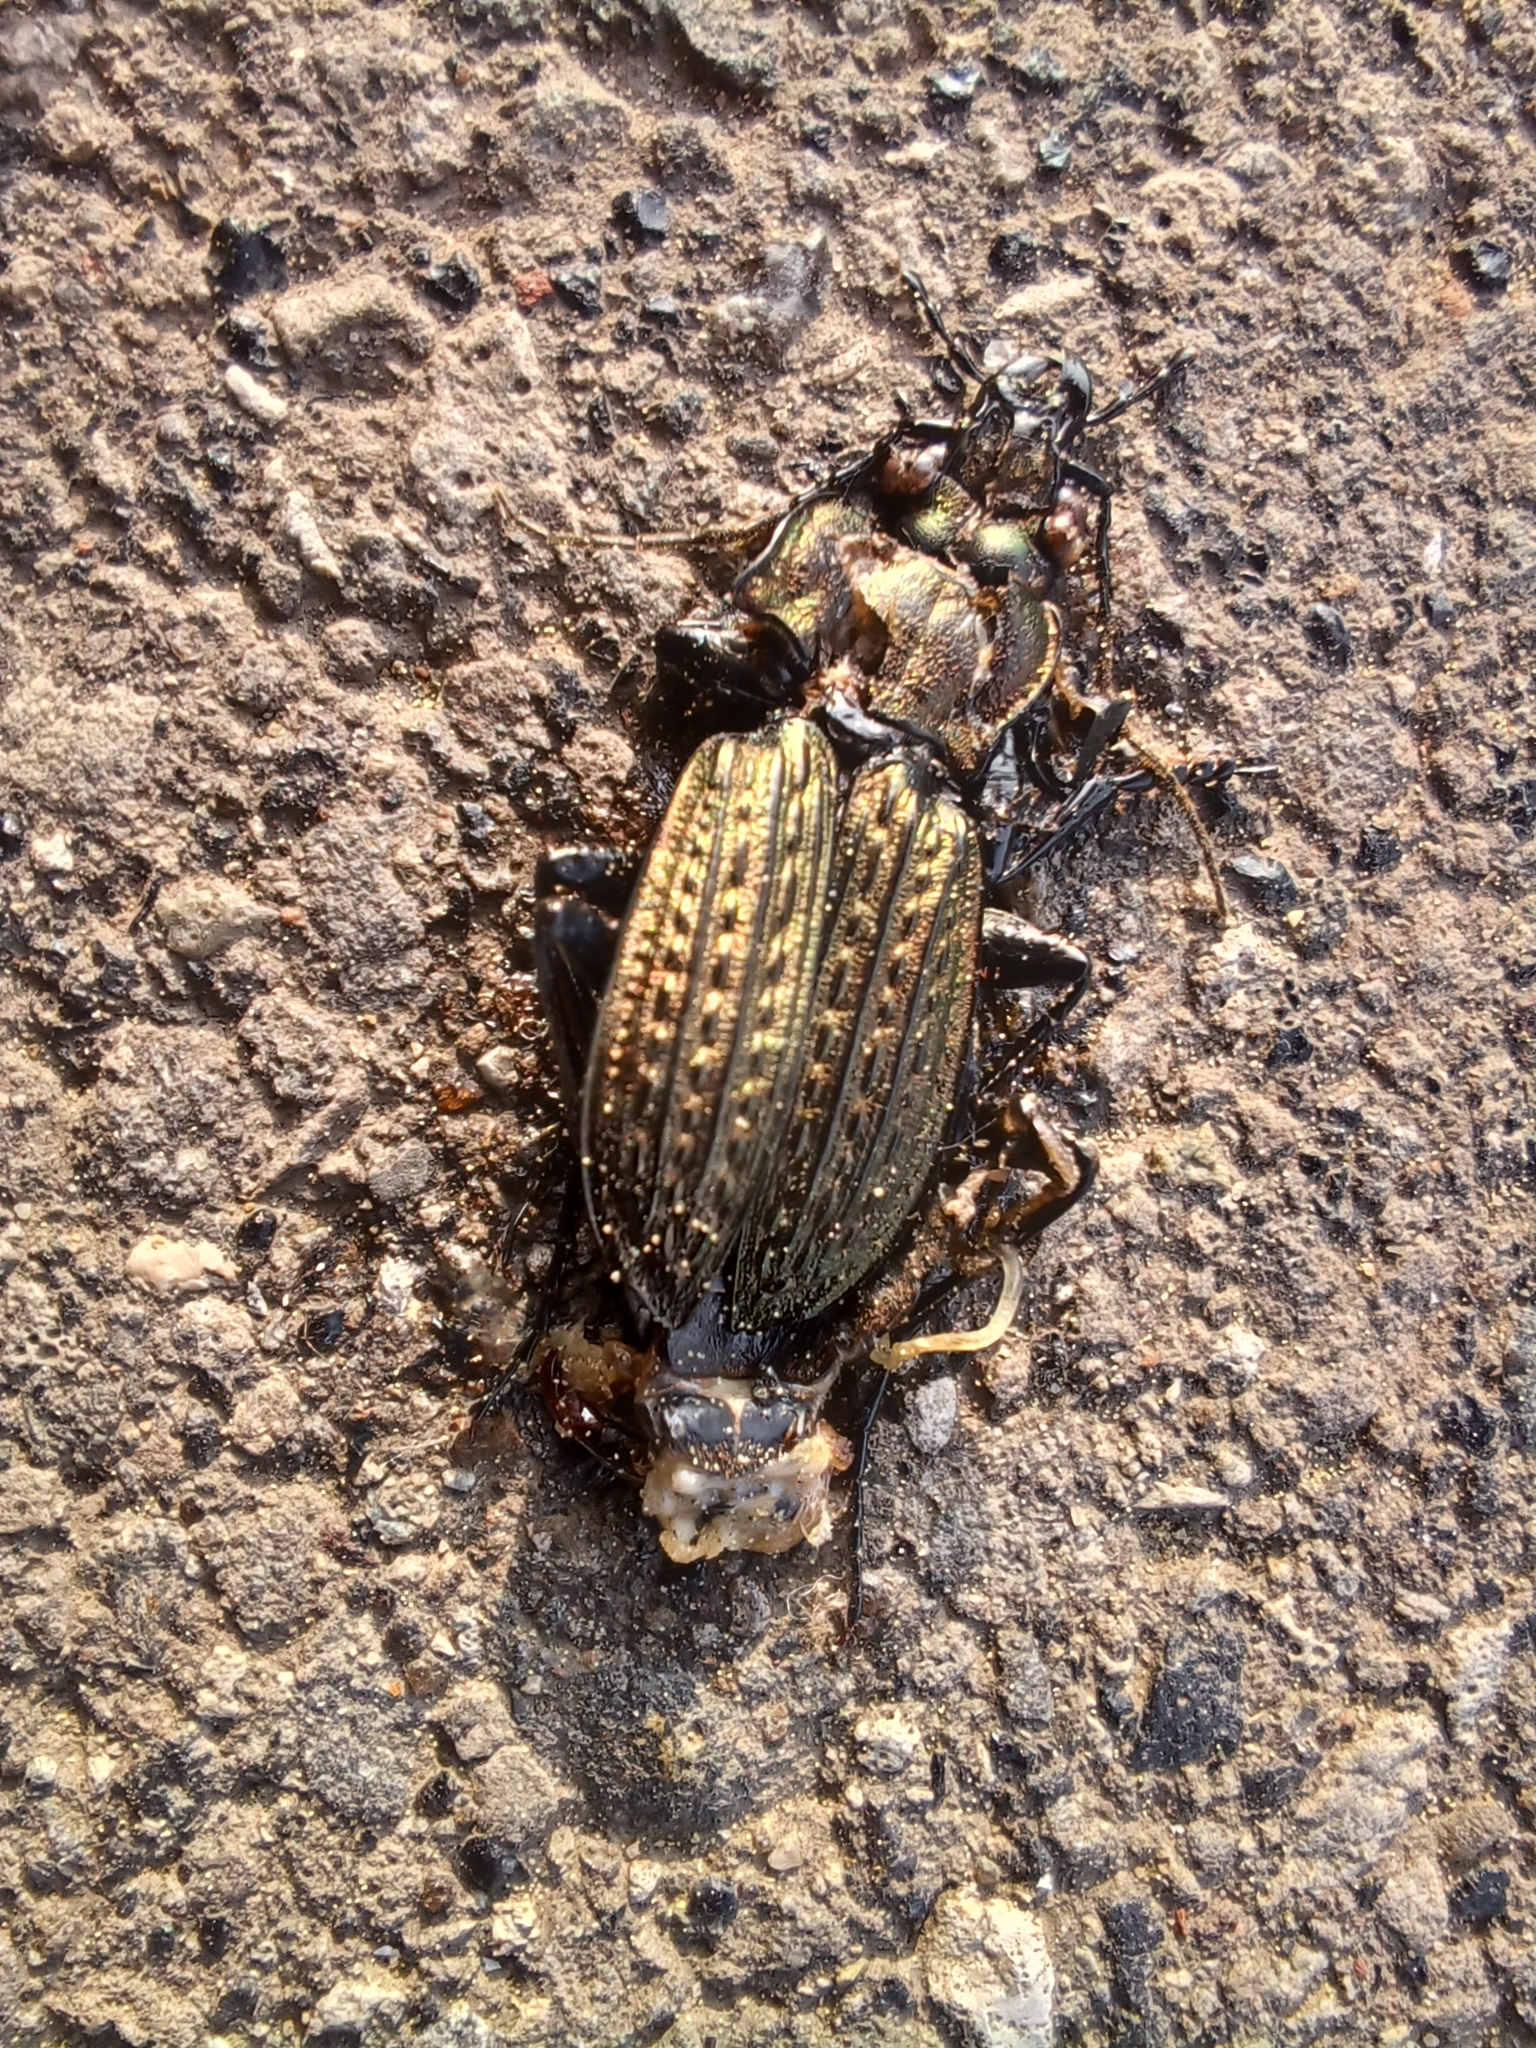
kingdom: Animalia
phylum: Arthropoda
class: Insecta
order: Coleoptera
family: Carabidae
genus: Carabus
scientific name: Carabus granulatus
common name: Granulate ground beetle
